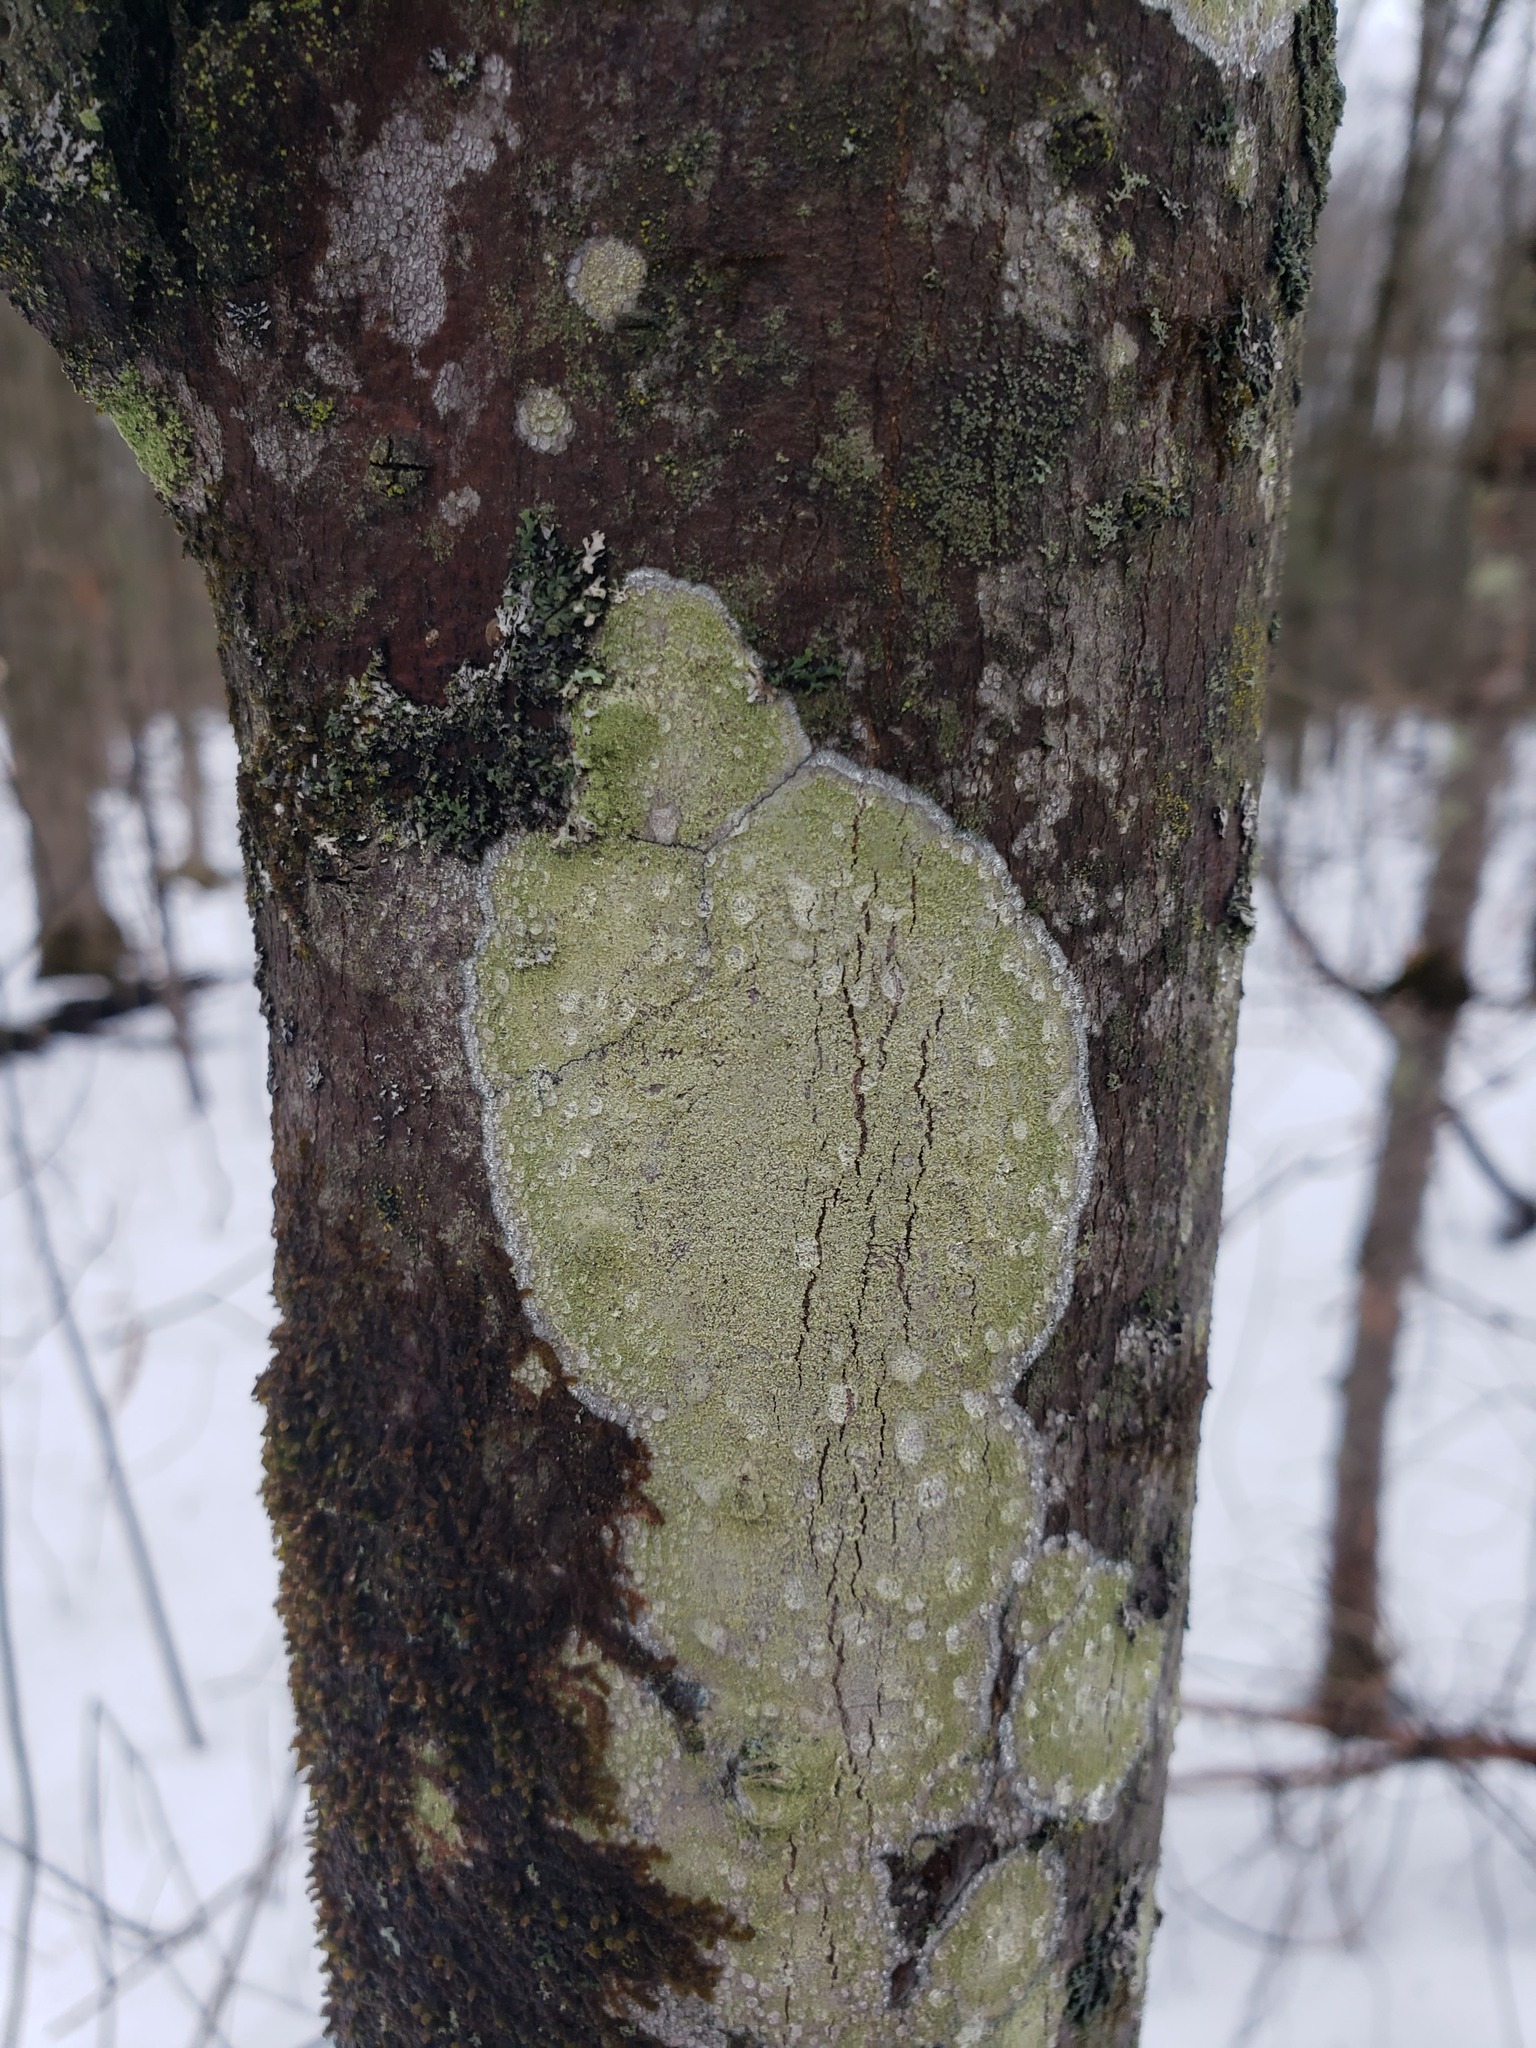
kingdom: Fungi
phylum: Ascomycota
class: Lecanoromycetes
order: Pertusariales
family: Pertusariaceae
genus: Verseghya
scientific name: Verseghya thysanophora
